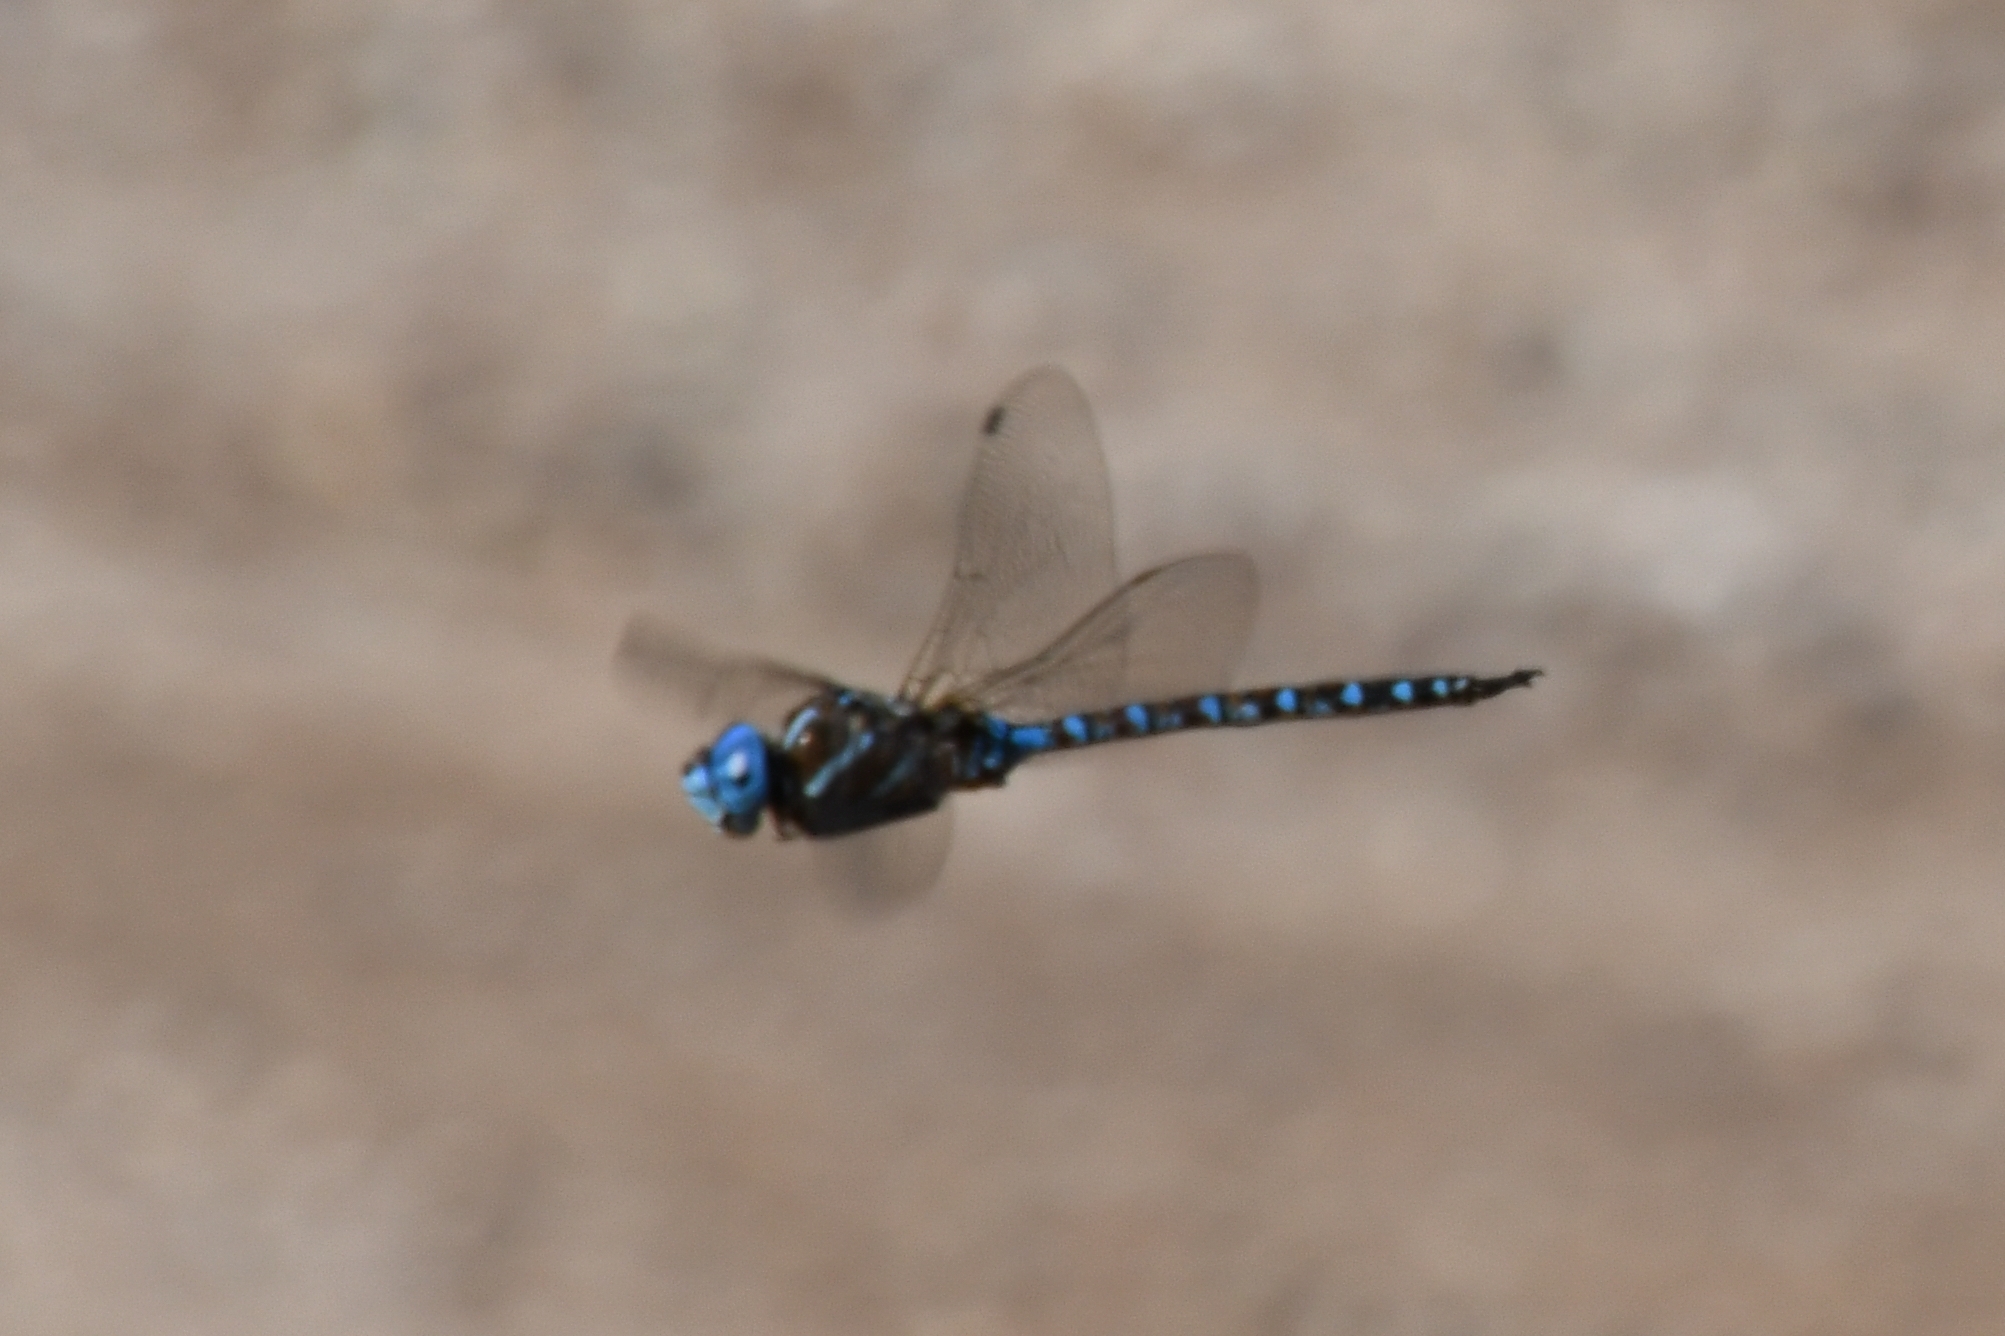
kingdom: Animalia
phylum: Arthropoda
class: Insecta
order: Odonata
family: Aeshnidae
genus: Rhionaeschna
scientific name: Rhionaeschna multicolor
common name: Blue-eyed darner
